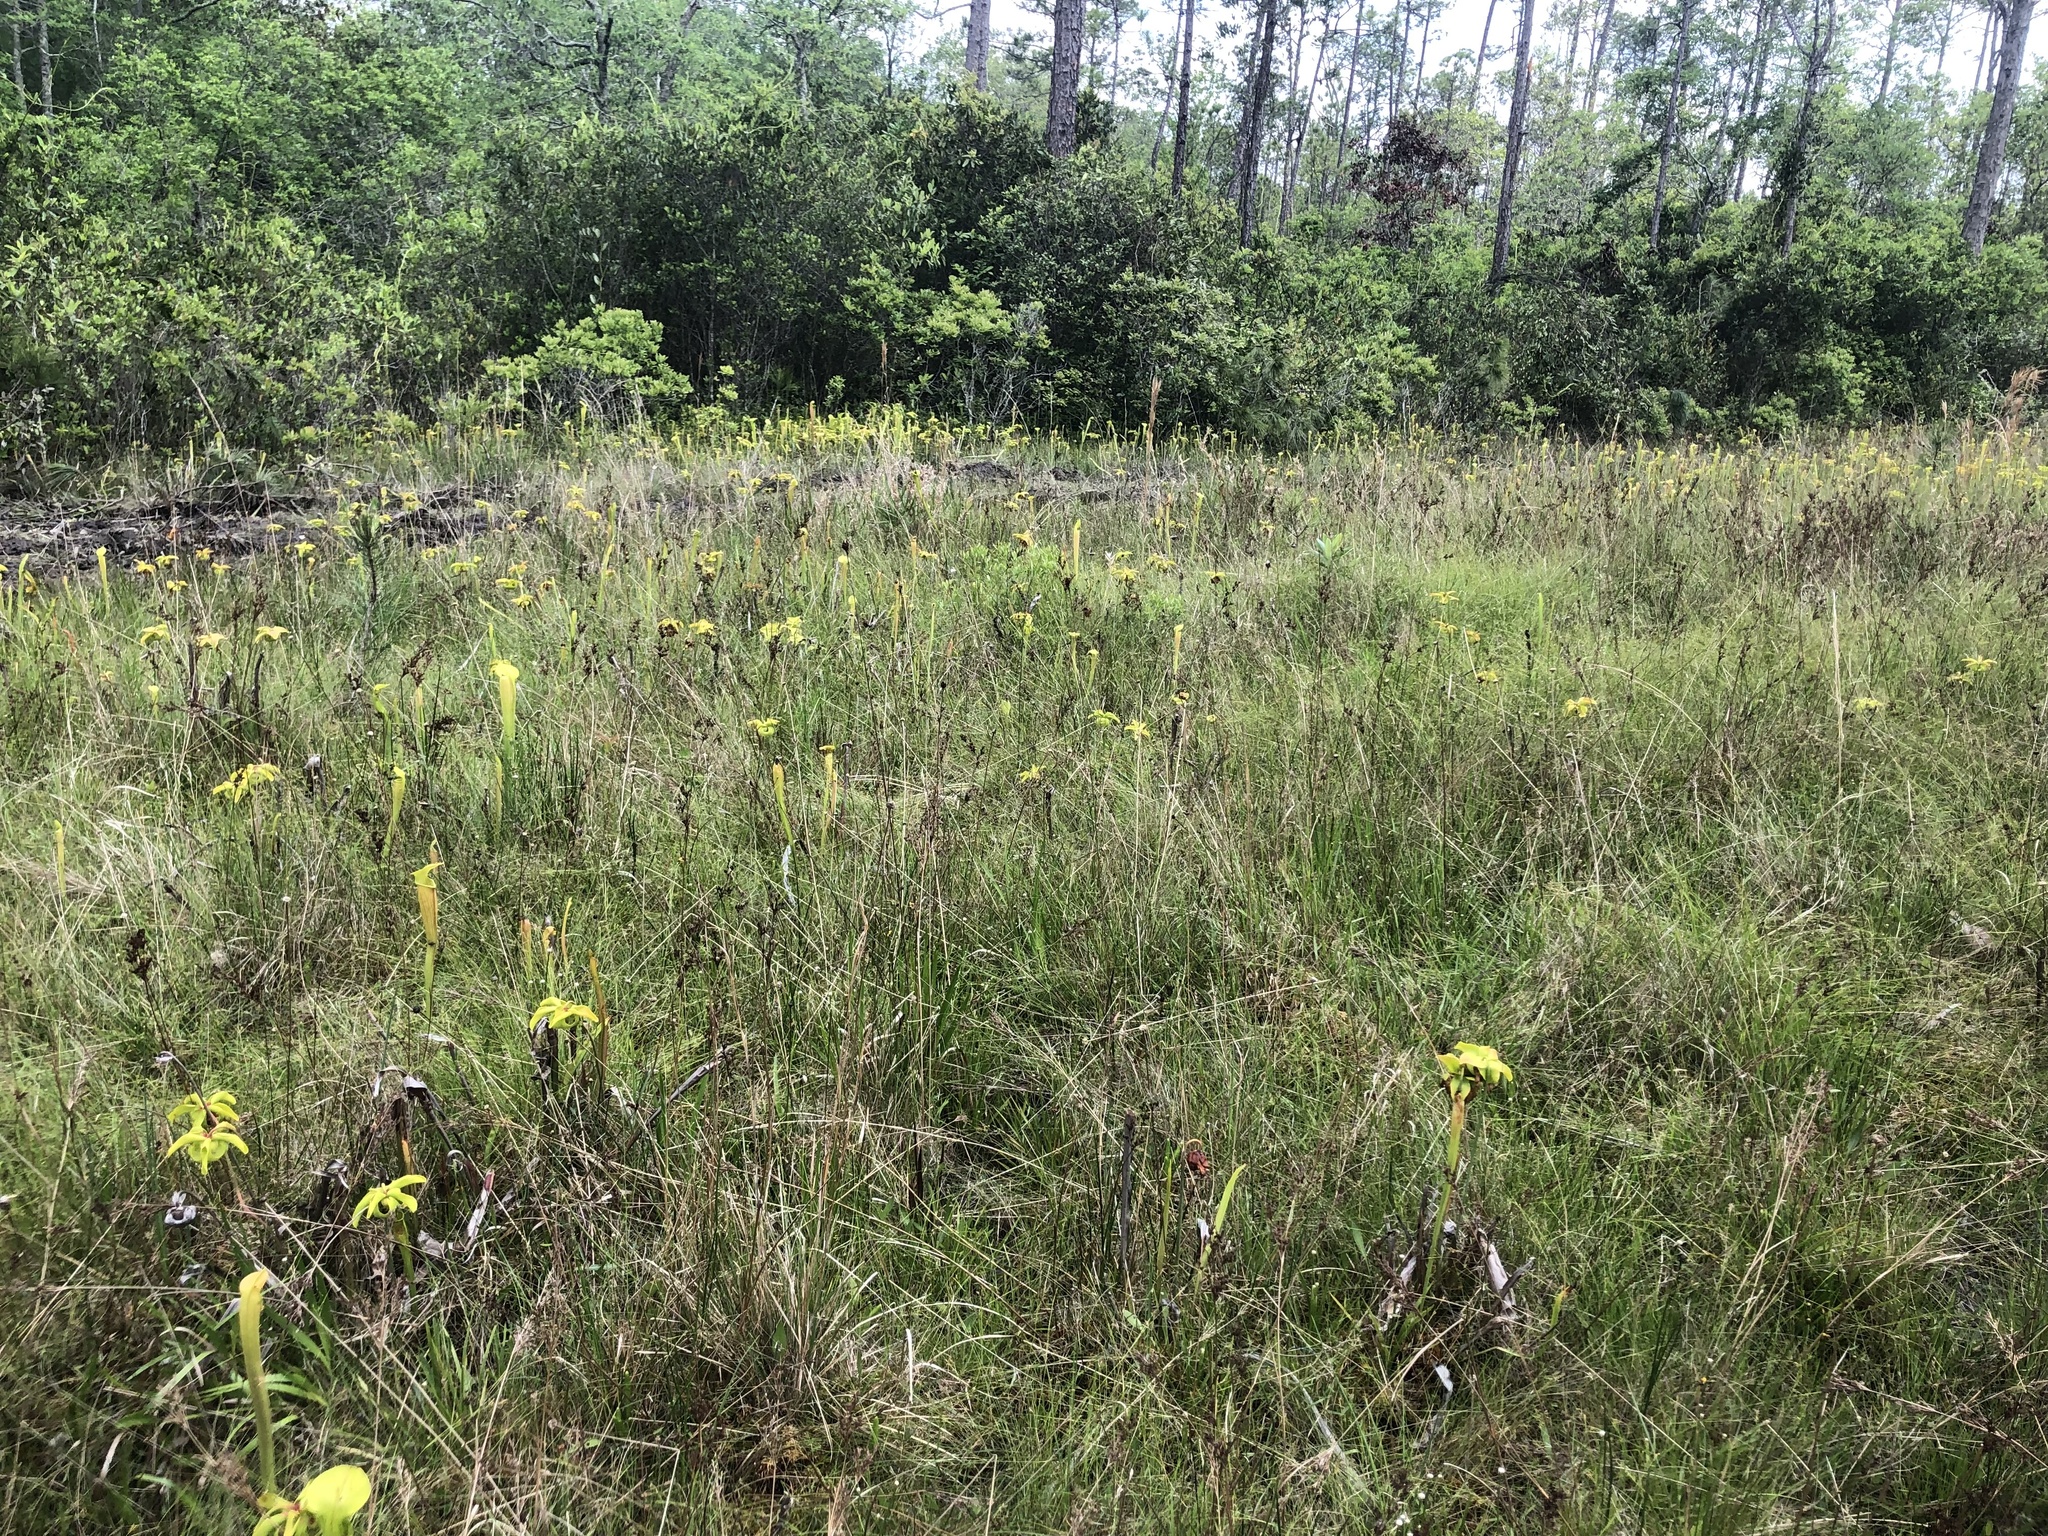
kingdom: Plantae
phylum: Tracheophyta
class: Magnoliopsida
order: Ericales
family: Sarraceniaceae
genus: Sarracenia
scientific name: Sarracenia alata
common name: Yellow trumpets
